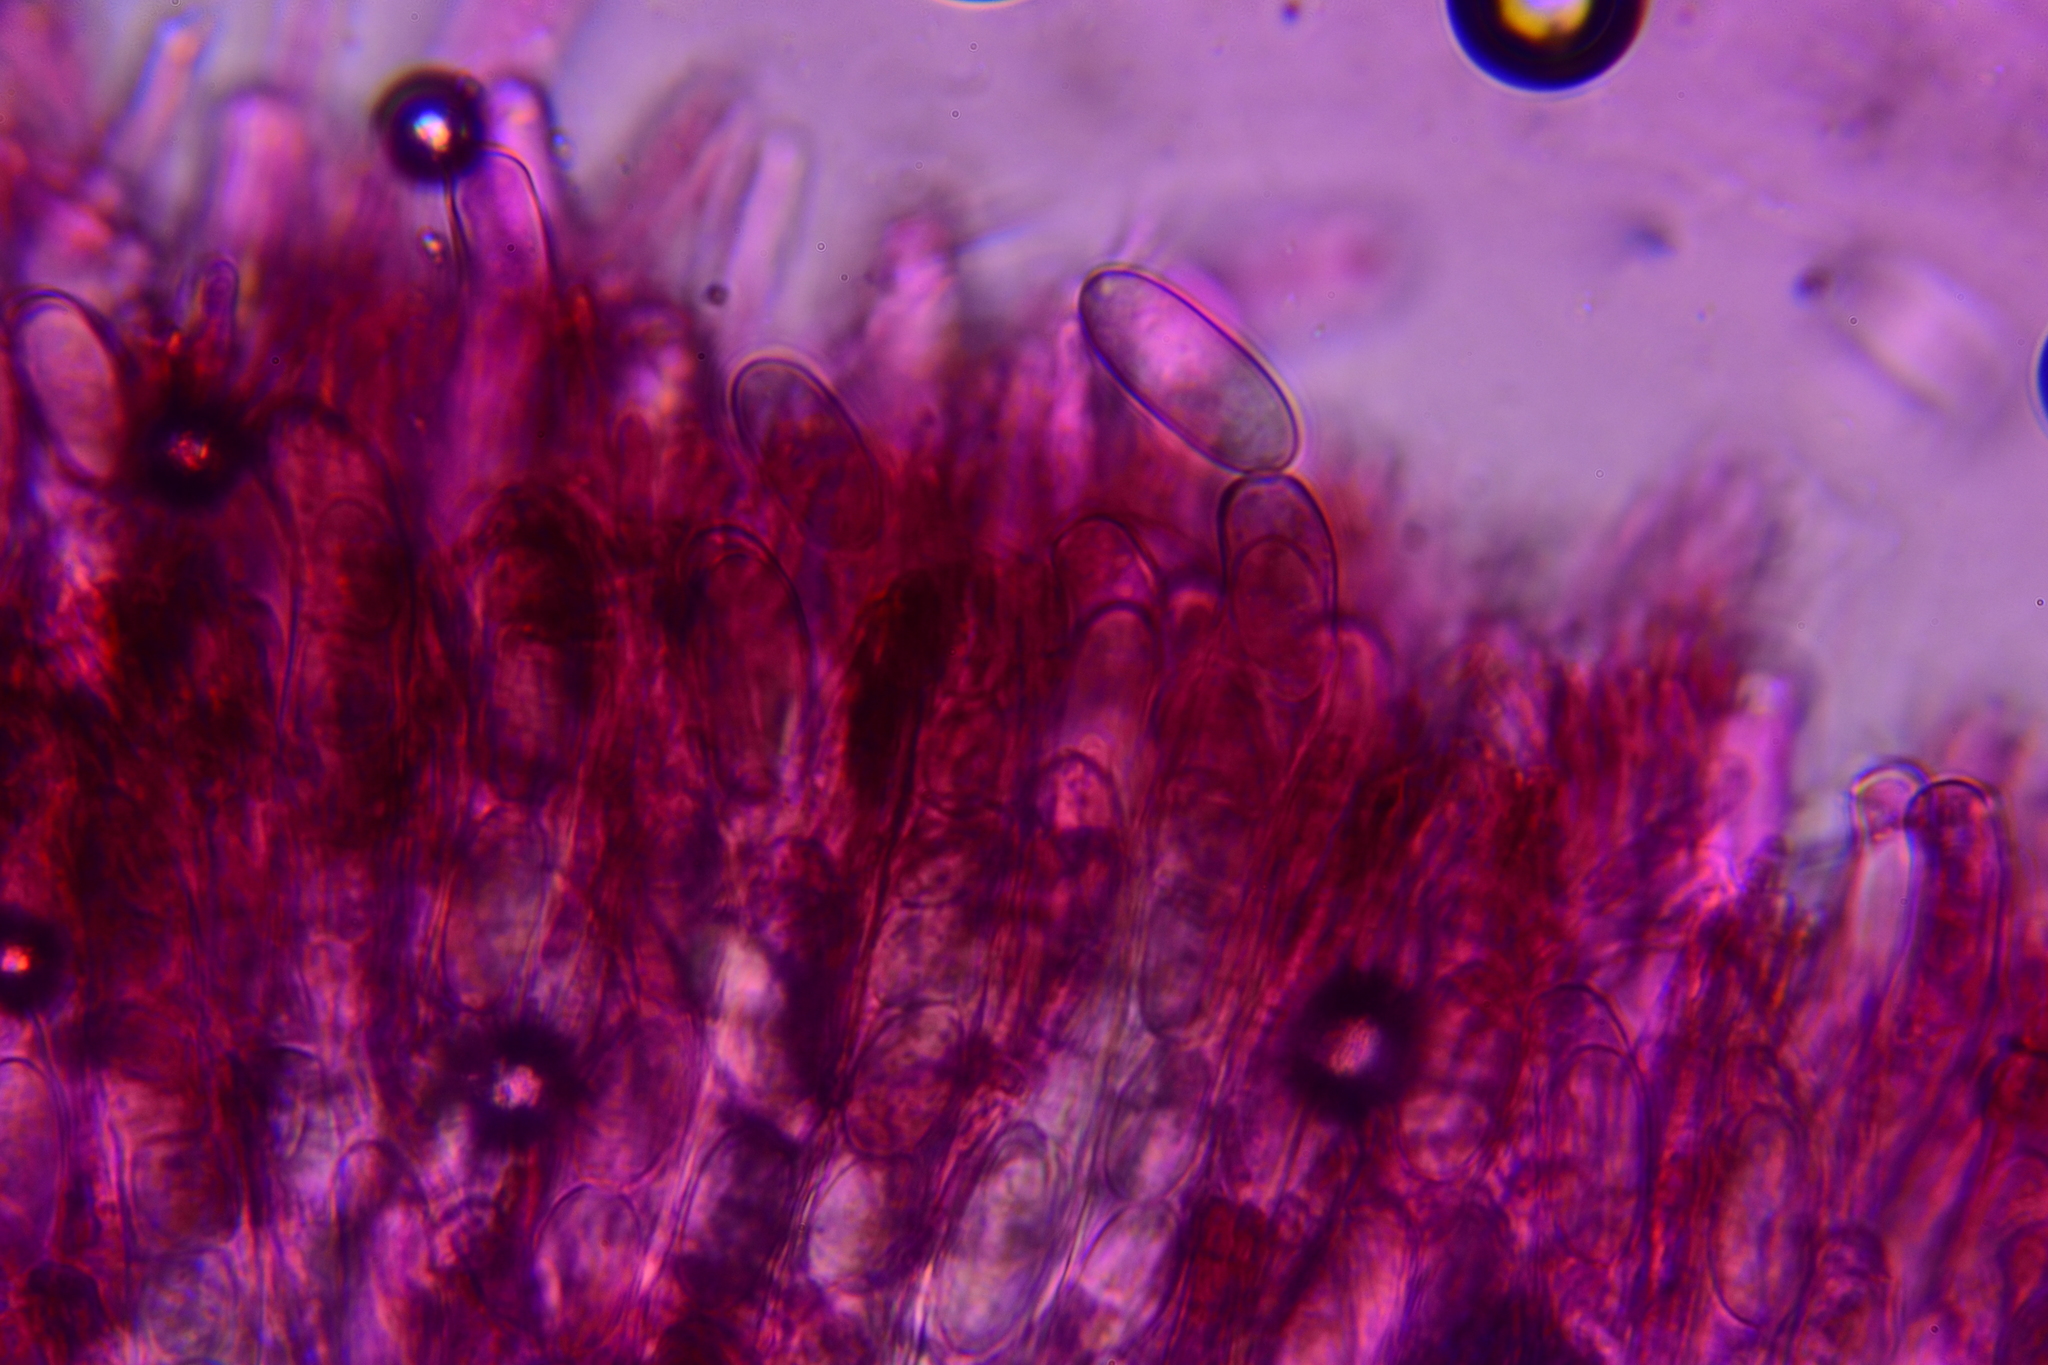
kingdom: Fungi
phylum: Ascomycota
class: Pezizomycetes
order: Pezizales
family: Sarcosomataceae
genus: Urnula
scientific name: Urnula craterium
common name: Devil's urn
